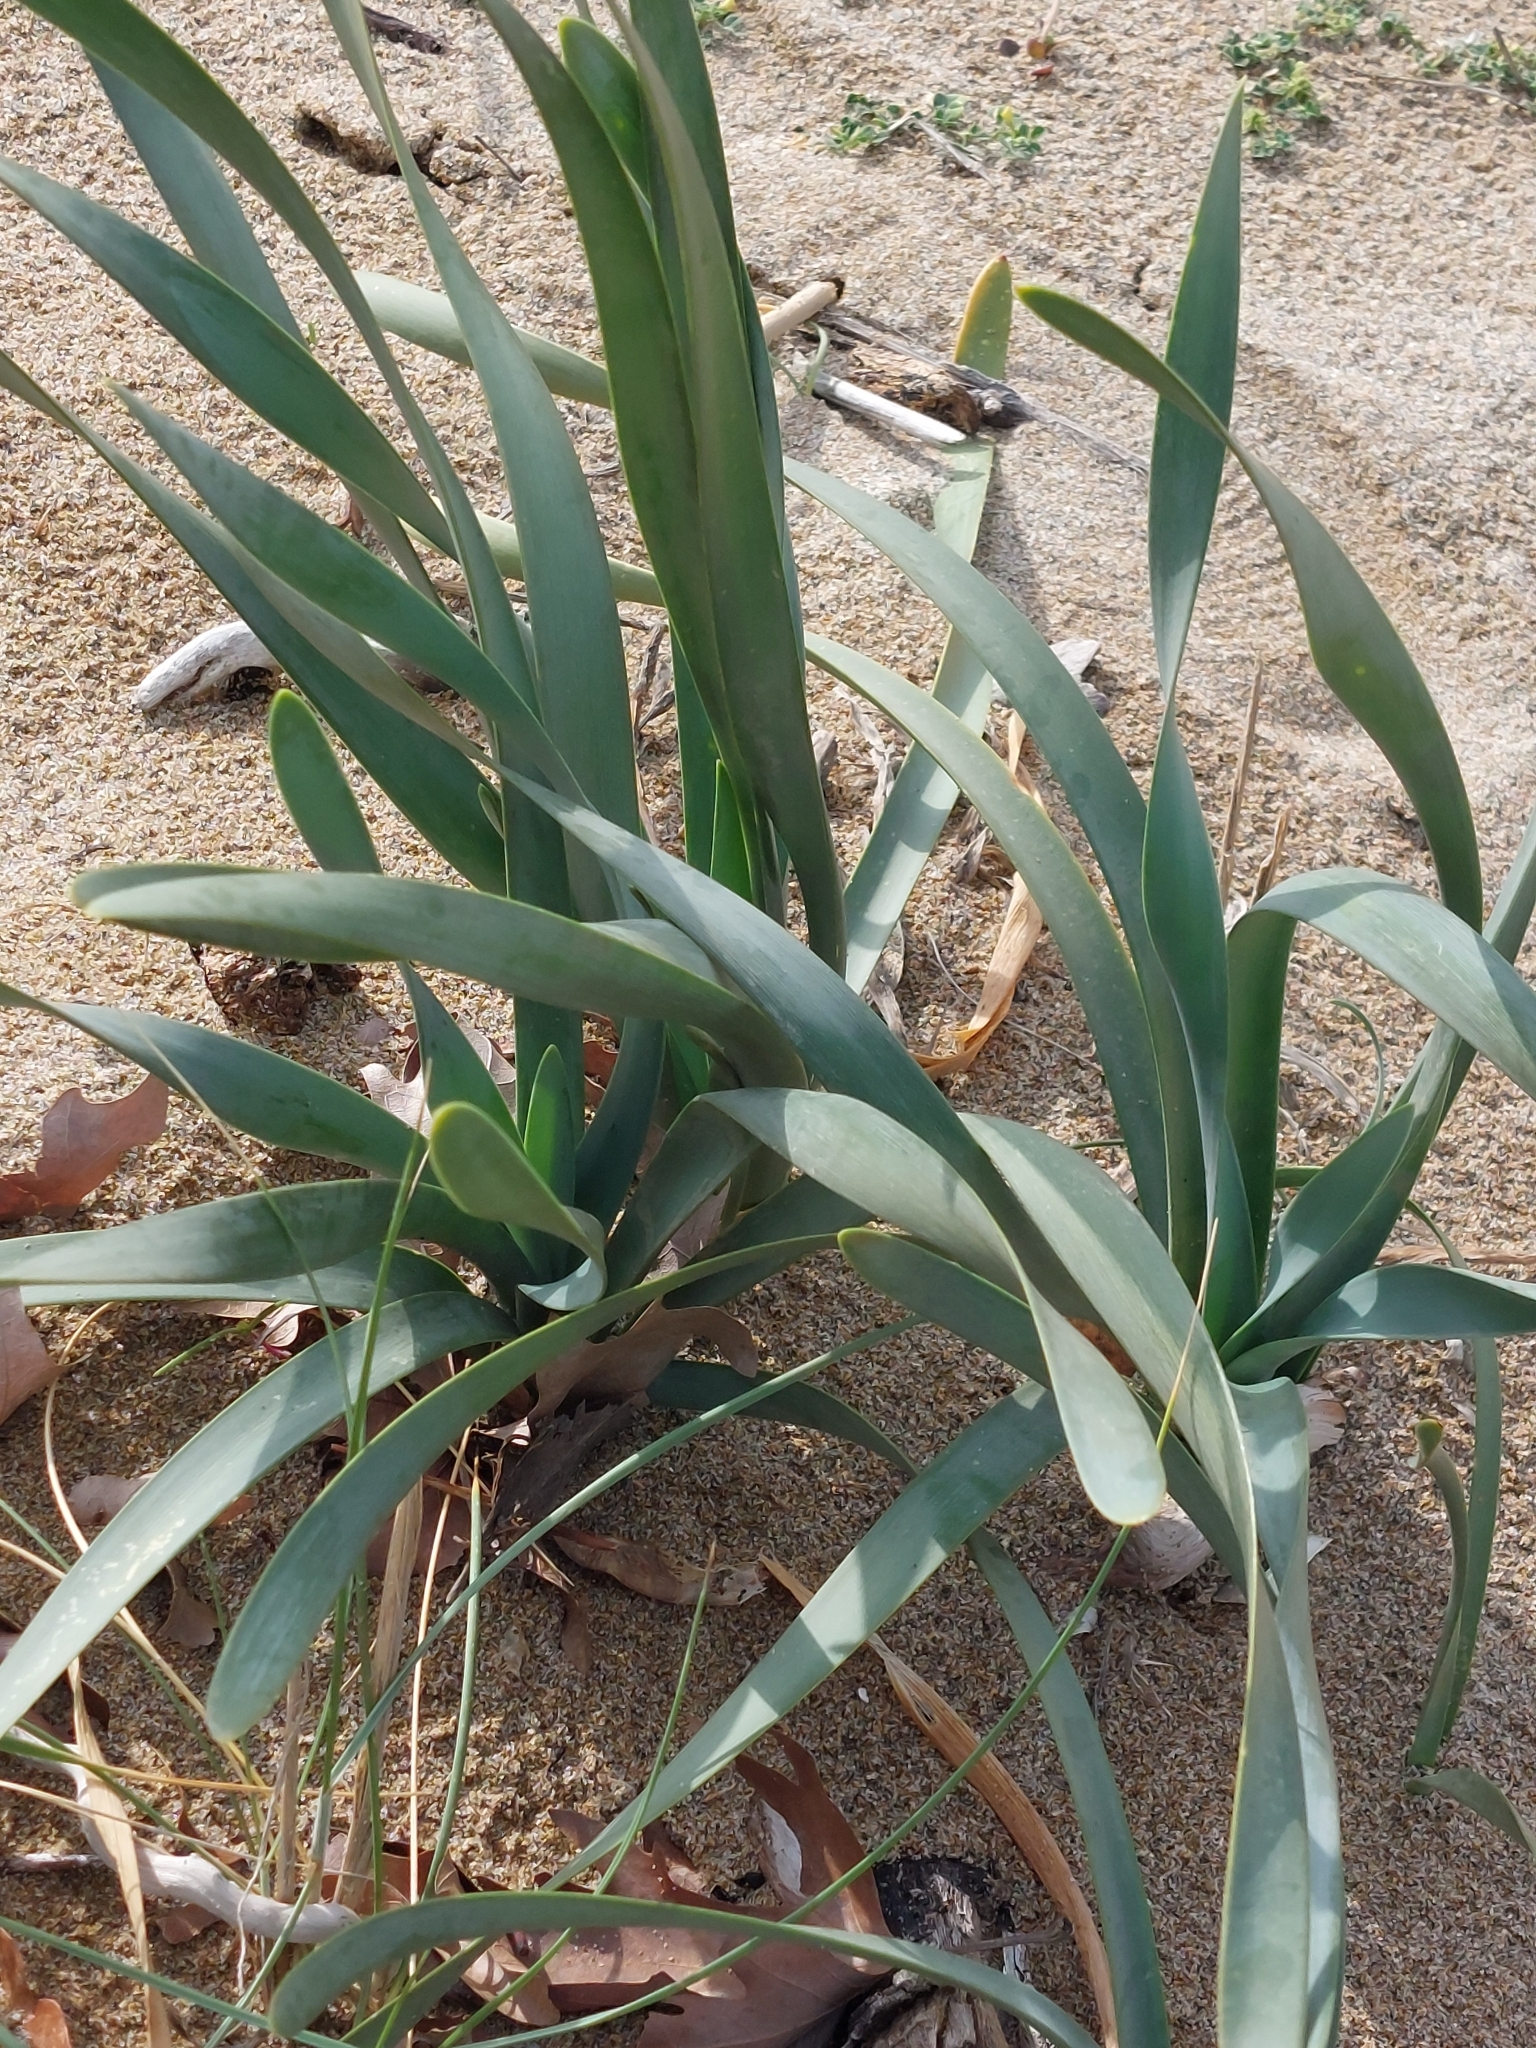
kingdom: Plantae
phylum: Tracheophyta
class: Liliopsida
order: Asparagales
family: Amaryllidaceae
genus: Pancratium
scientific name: Pancratium maritimum
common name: Sea-daffodil
